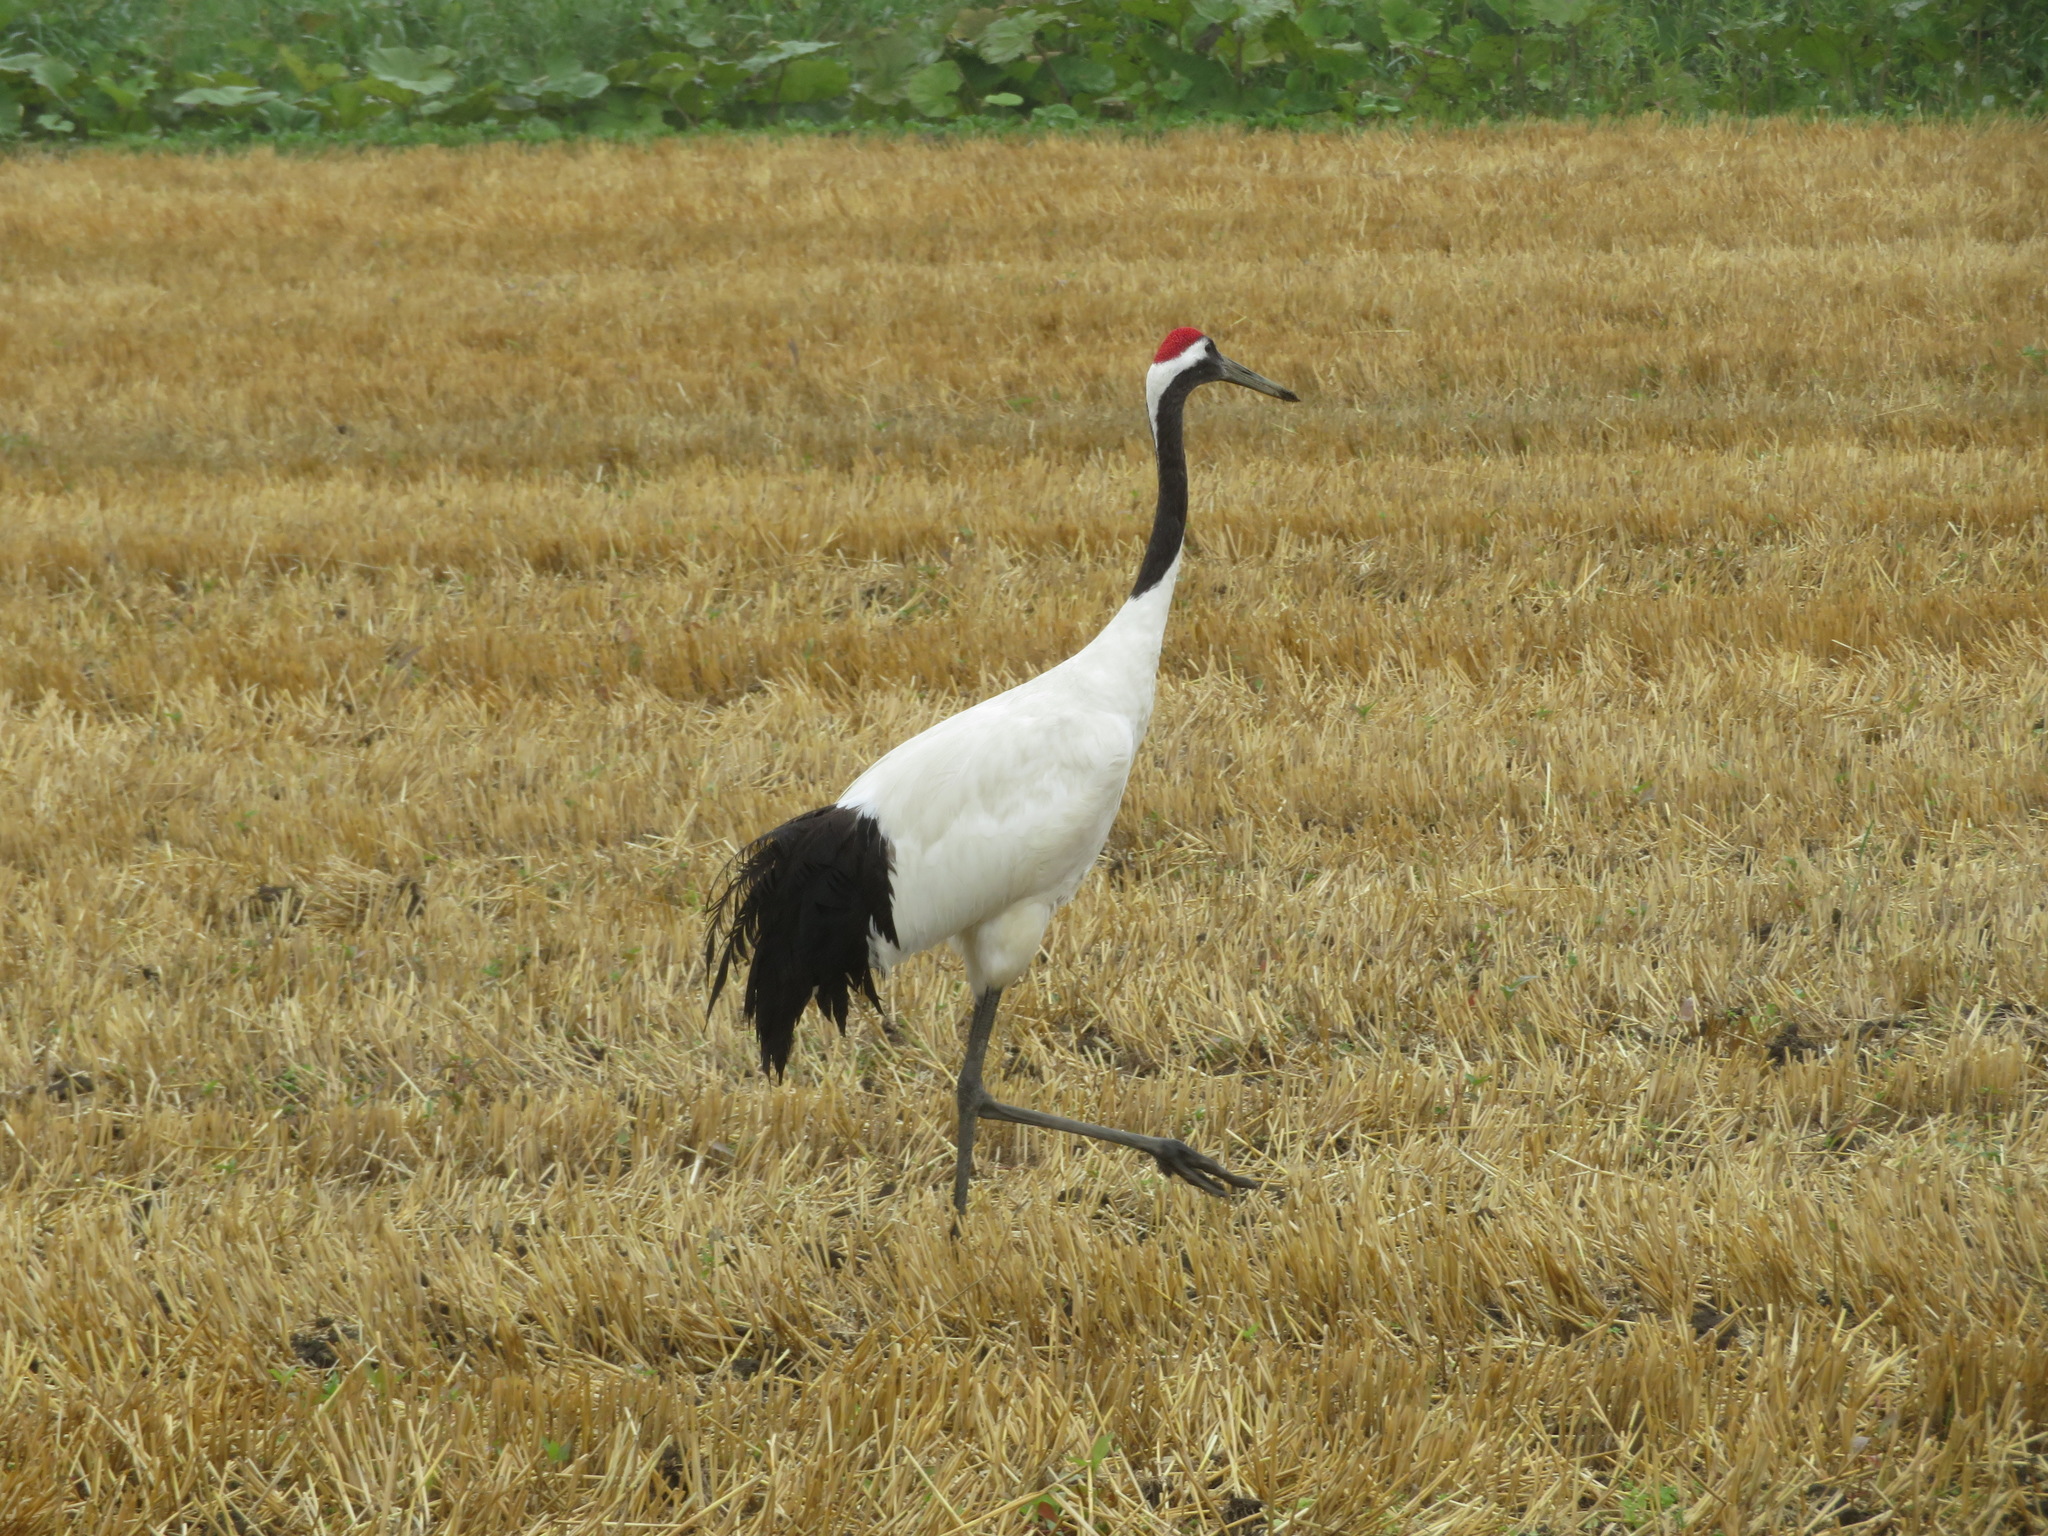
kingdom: Animalia
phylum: Chordata
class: Aves
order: Gruiformes
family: Gruidae
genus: Grus
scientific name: Grus japonensis
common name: Red-crowned crane
